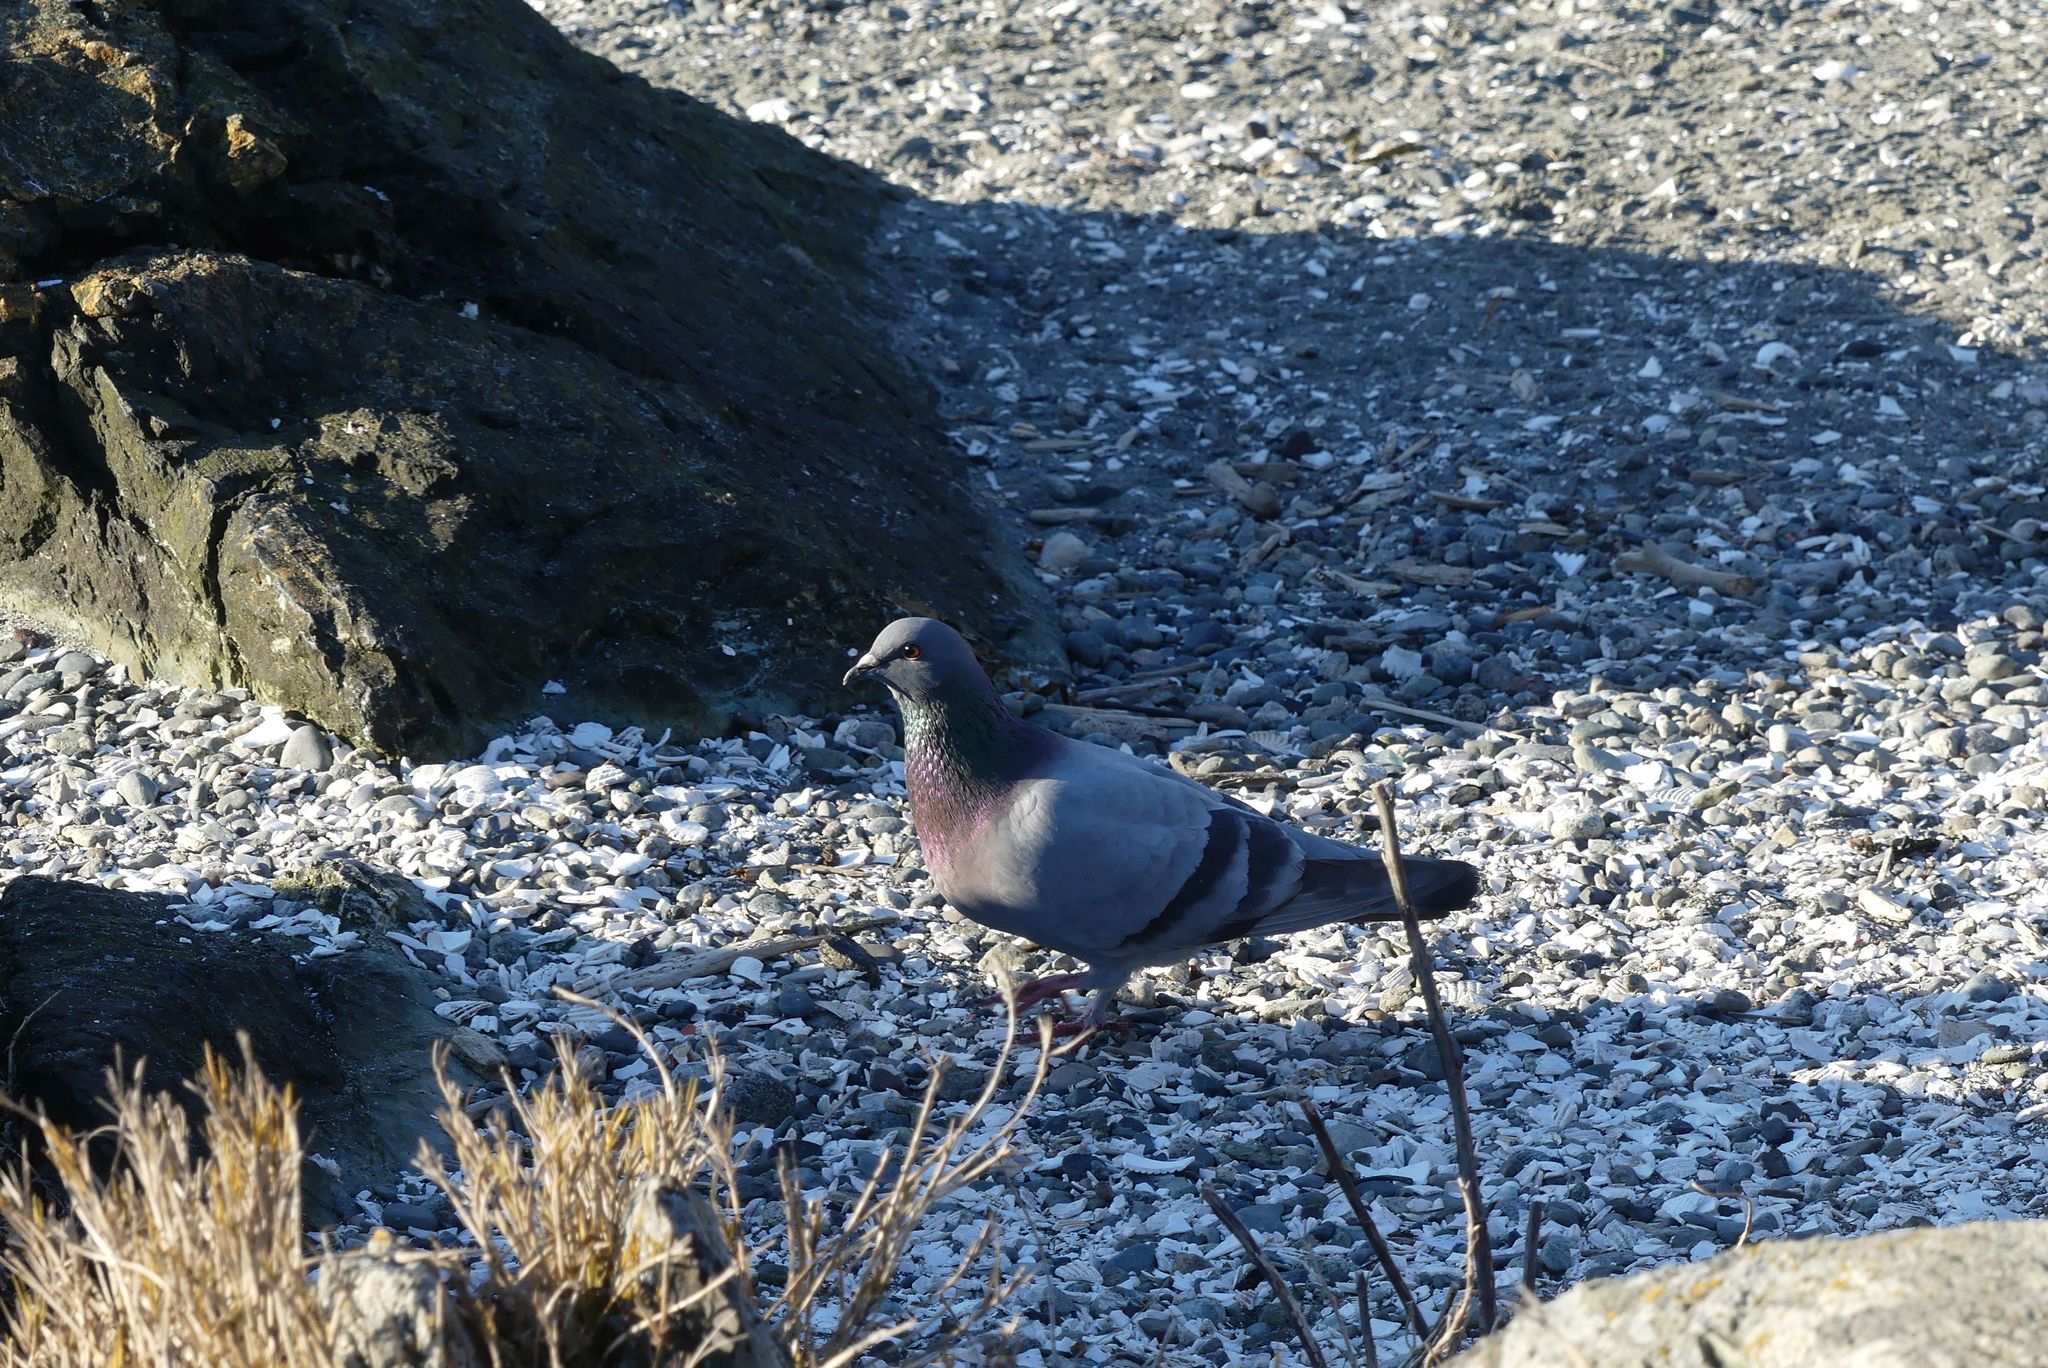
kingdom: Animalia
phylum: Chordata
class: Aves
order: Columbiformes
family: Columbidae
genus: Columba
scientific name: Columba livia
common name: Rock pigeon
